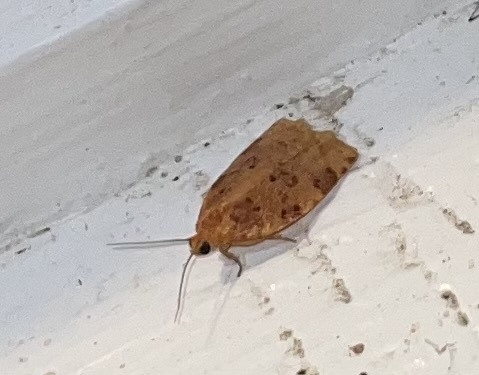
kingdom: Animalia
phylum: Arthropoda
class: Insecta
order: Lepidoptera
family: Tortricidae
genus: Archips
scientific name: Archips cerasivorana
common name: Uglynest caterpillar
